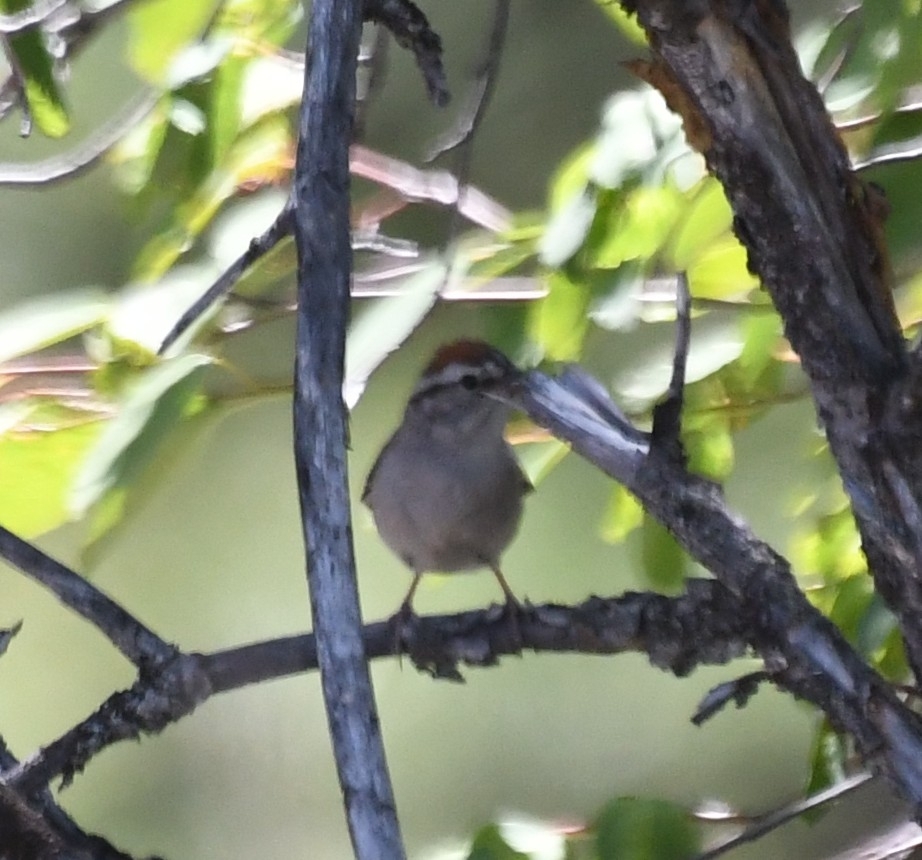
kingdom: Animalia
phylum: Chordata
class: Aves
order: Passeriformes
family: Passerellidae
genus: Spizella
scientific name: Spizella passerina
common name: Chipping sparrow
